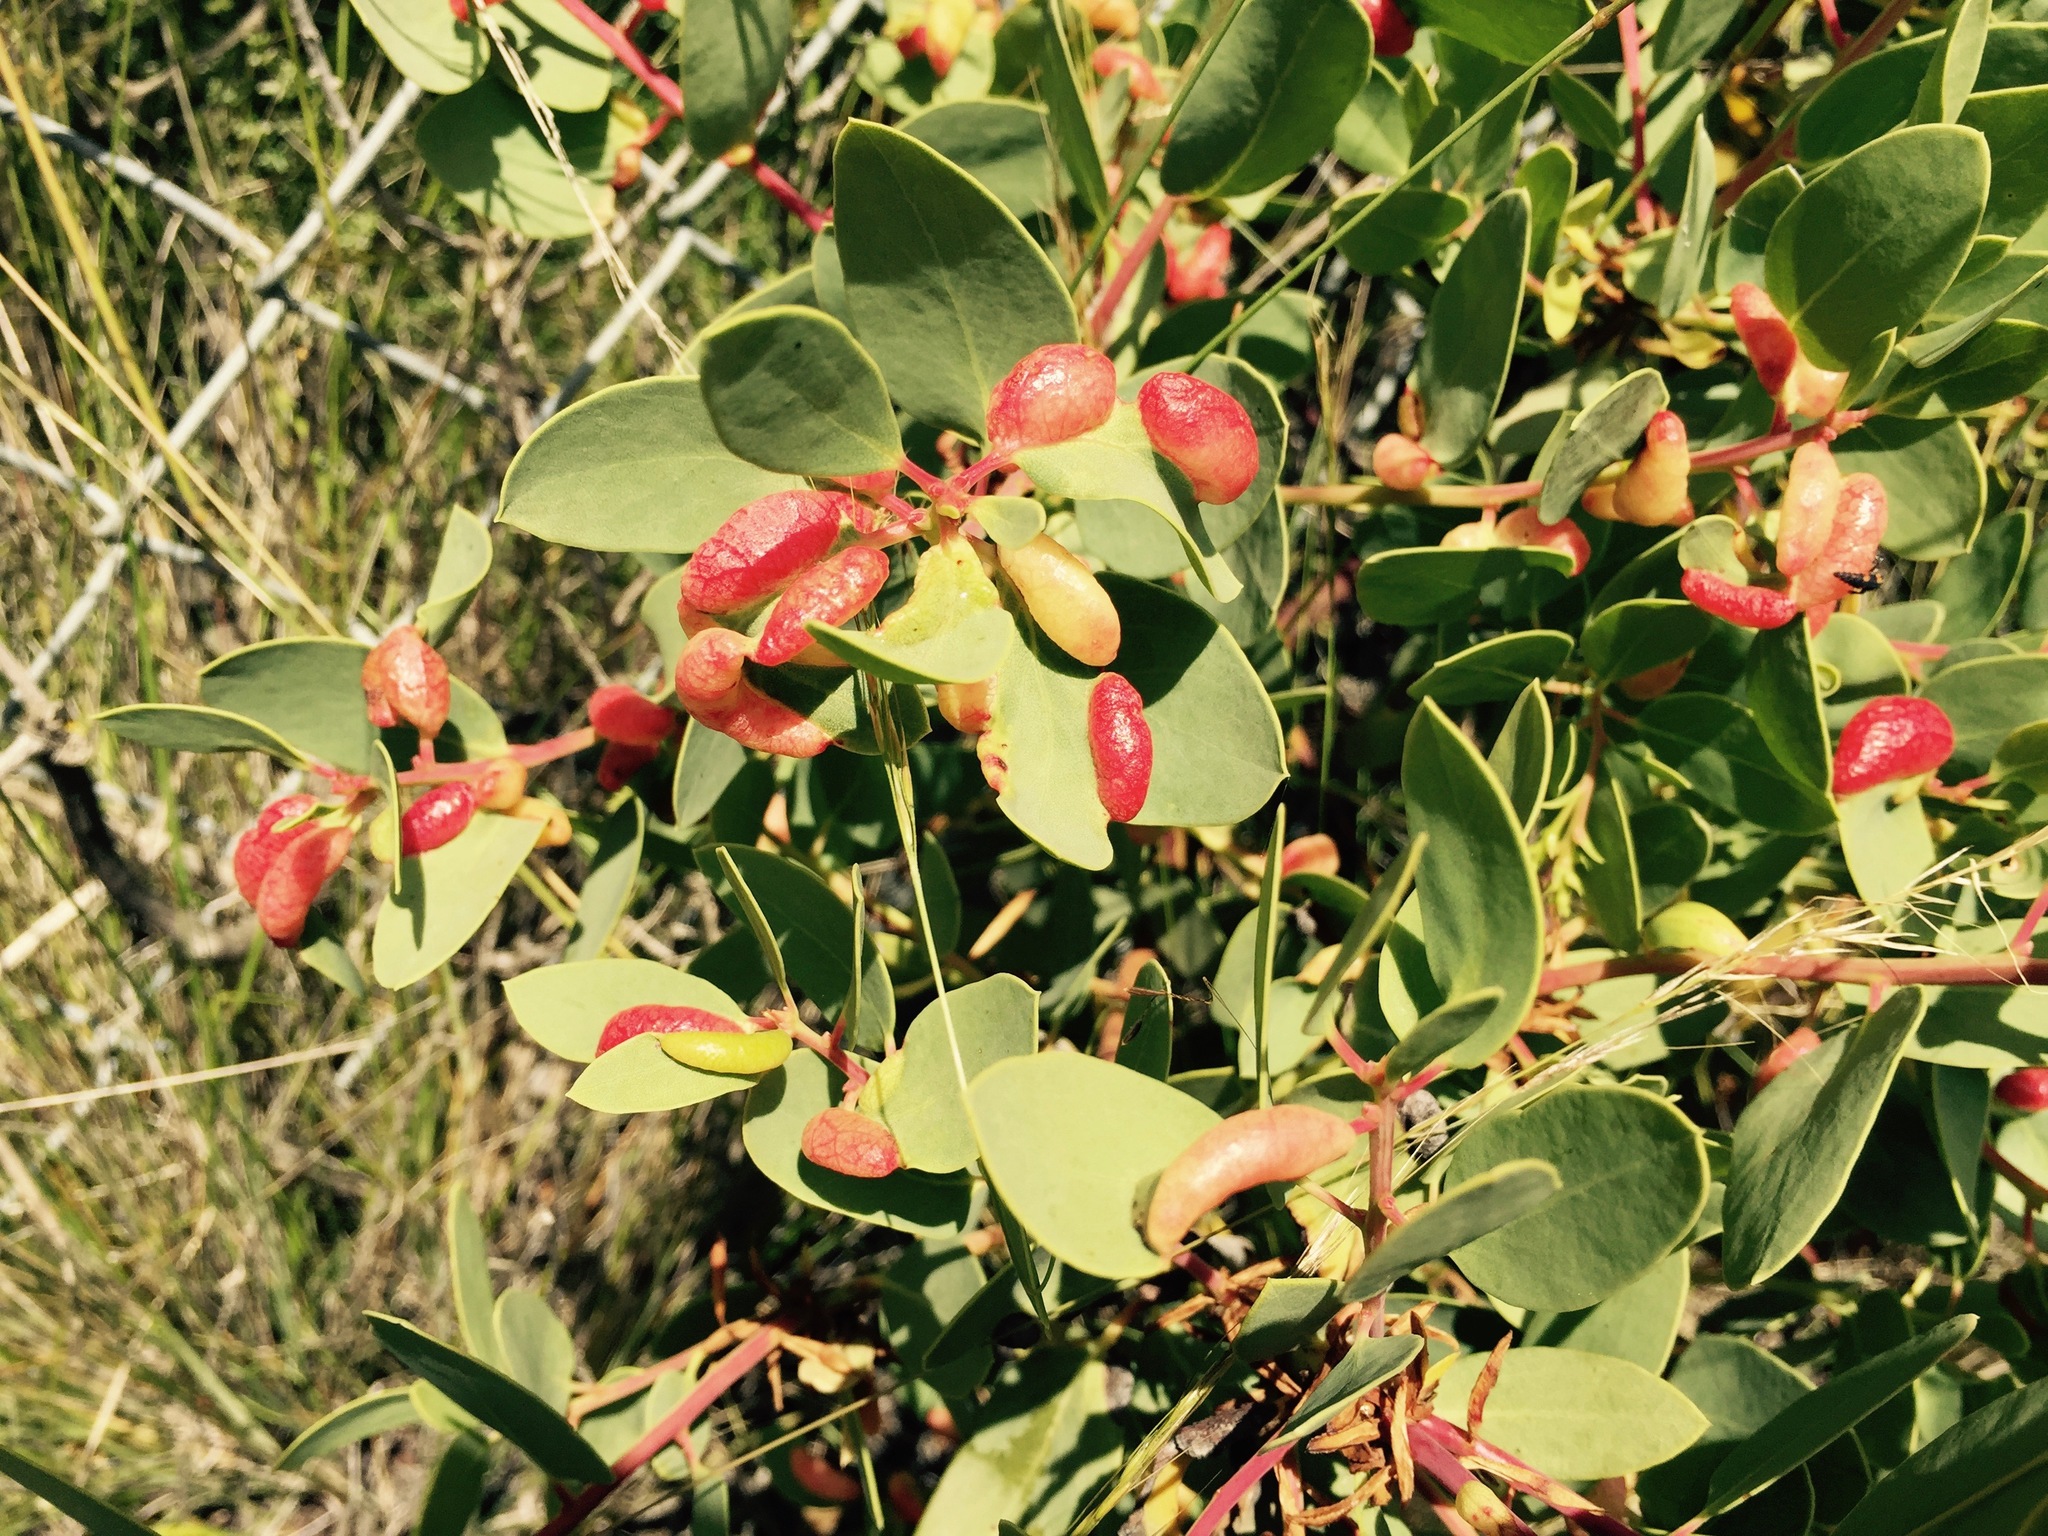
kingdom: Animalia
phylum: Arthropoda
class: Insecta
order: Hemiptera
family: Aphididae
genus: Tamalia
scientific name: Tamalia coweni
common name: Manzanita leafgall aphid
